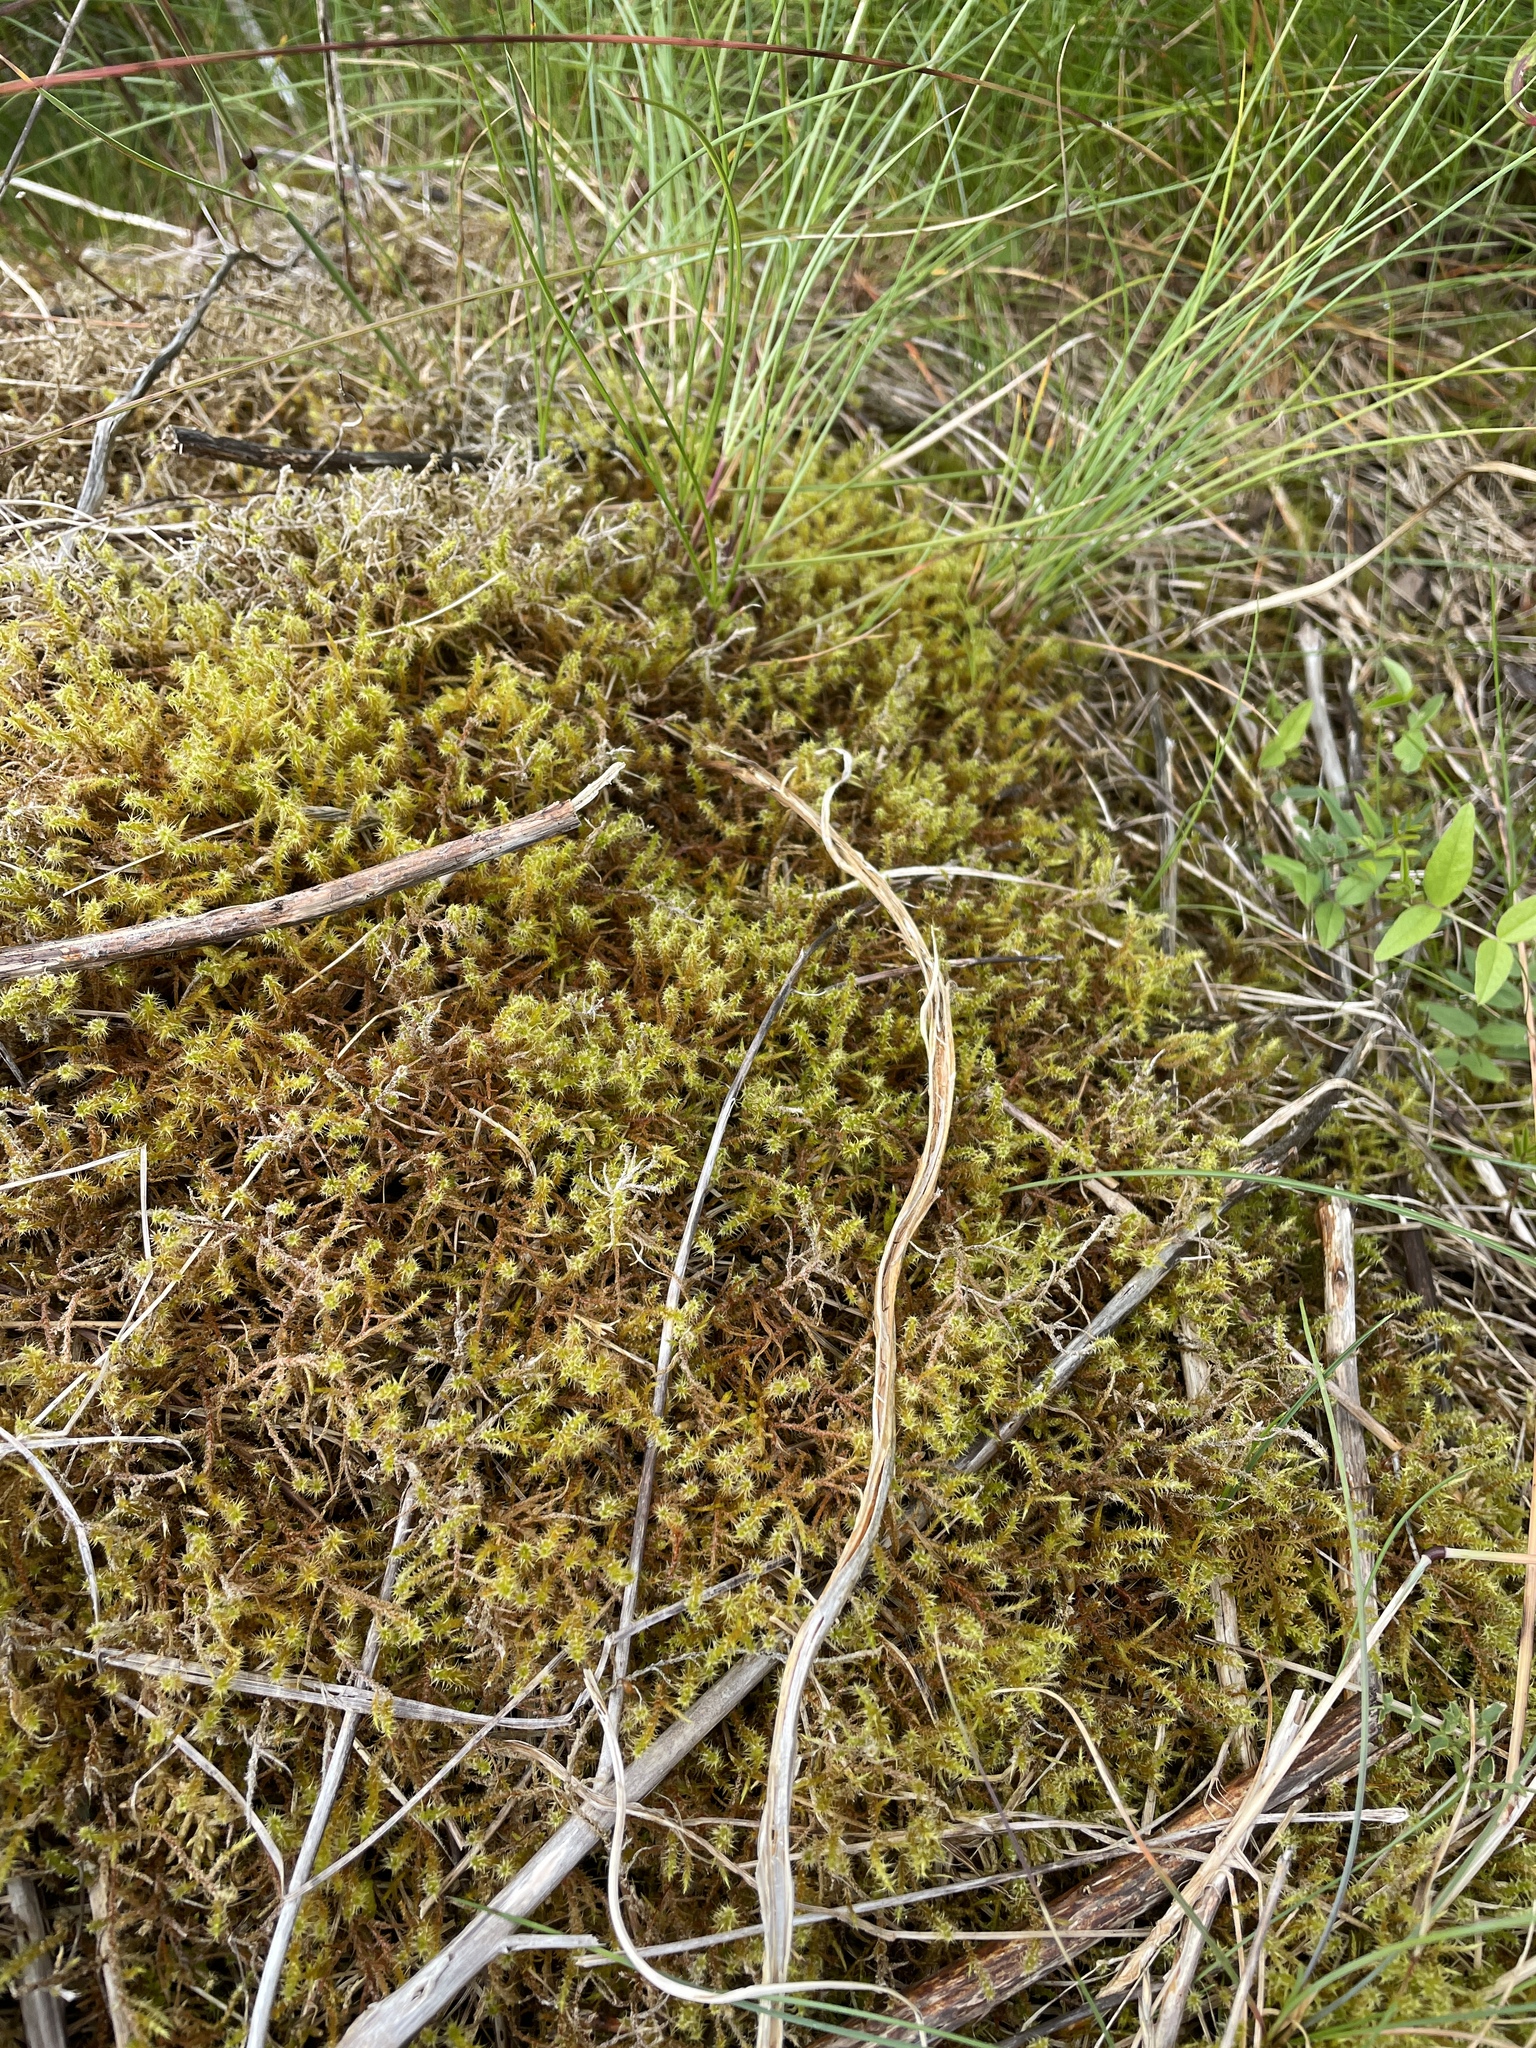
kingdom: Plantae
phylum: Bryophyta
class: Bryopsida
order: Hypnales
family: Hylocomiaceae
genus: Rhytidiadelphus
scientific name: Rhytidiadelphus squarrosus
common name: Springy turf-moss
